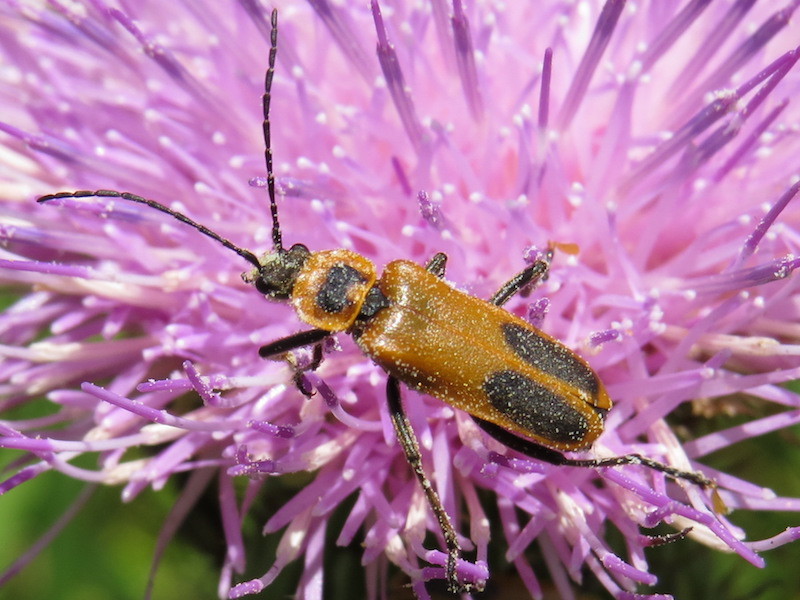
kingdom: Animalia
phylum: Arthropoda
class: Insecta
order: Coleoptera
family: Cantharidae
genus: Chauliognathus
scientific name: Chauliognathus pensylvanicus
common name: Goldenrod soldier beetle
